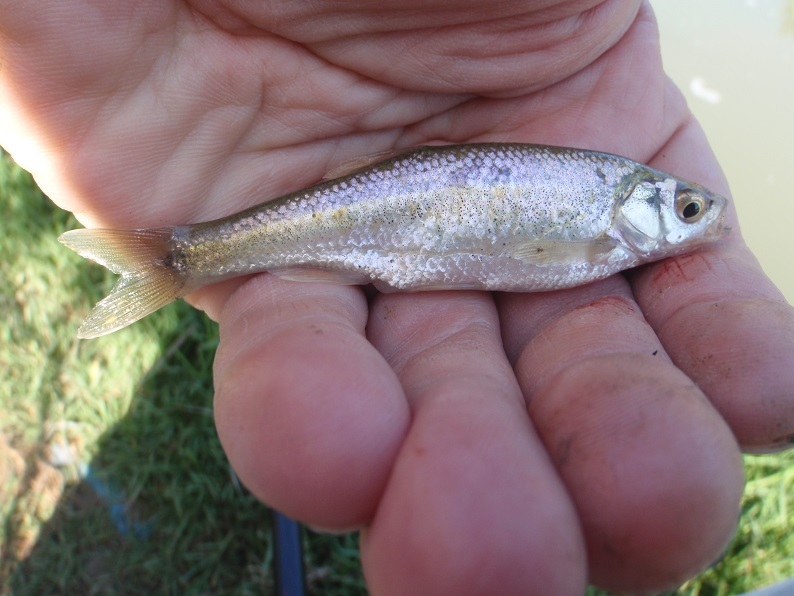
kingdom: Animalia
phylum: Chordata
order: Cypriniformes
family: Cyprinidae
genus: Pseudophoxinus
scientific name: Pseudophoxinus callensis
